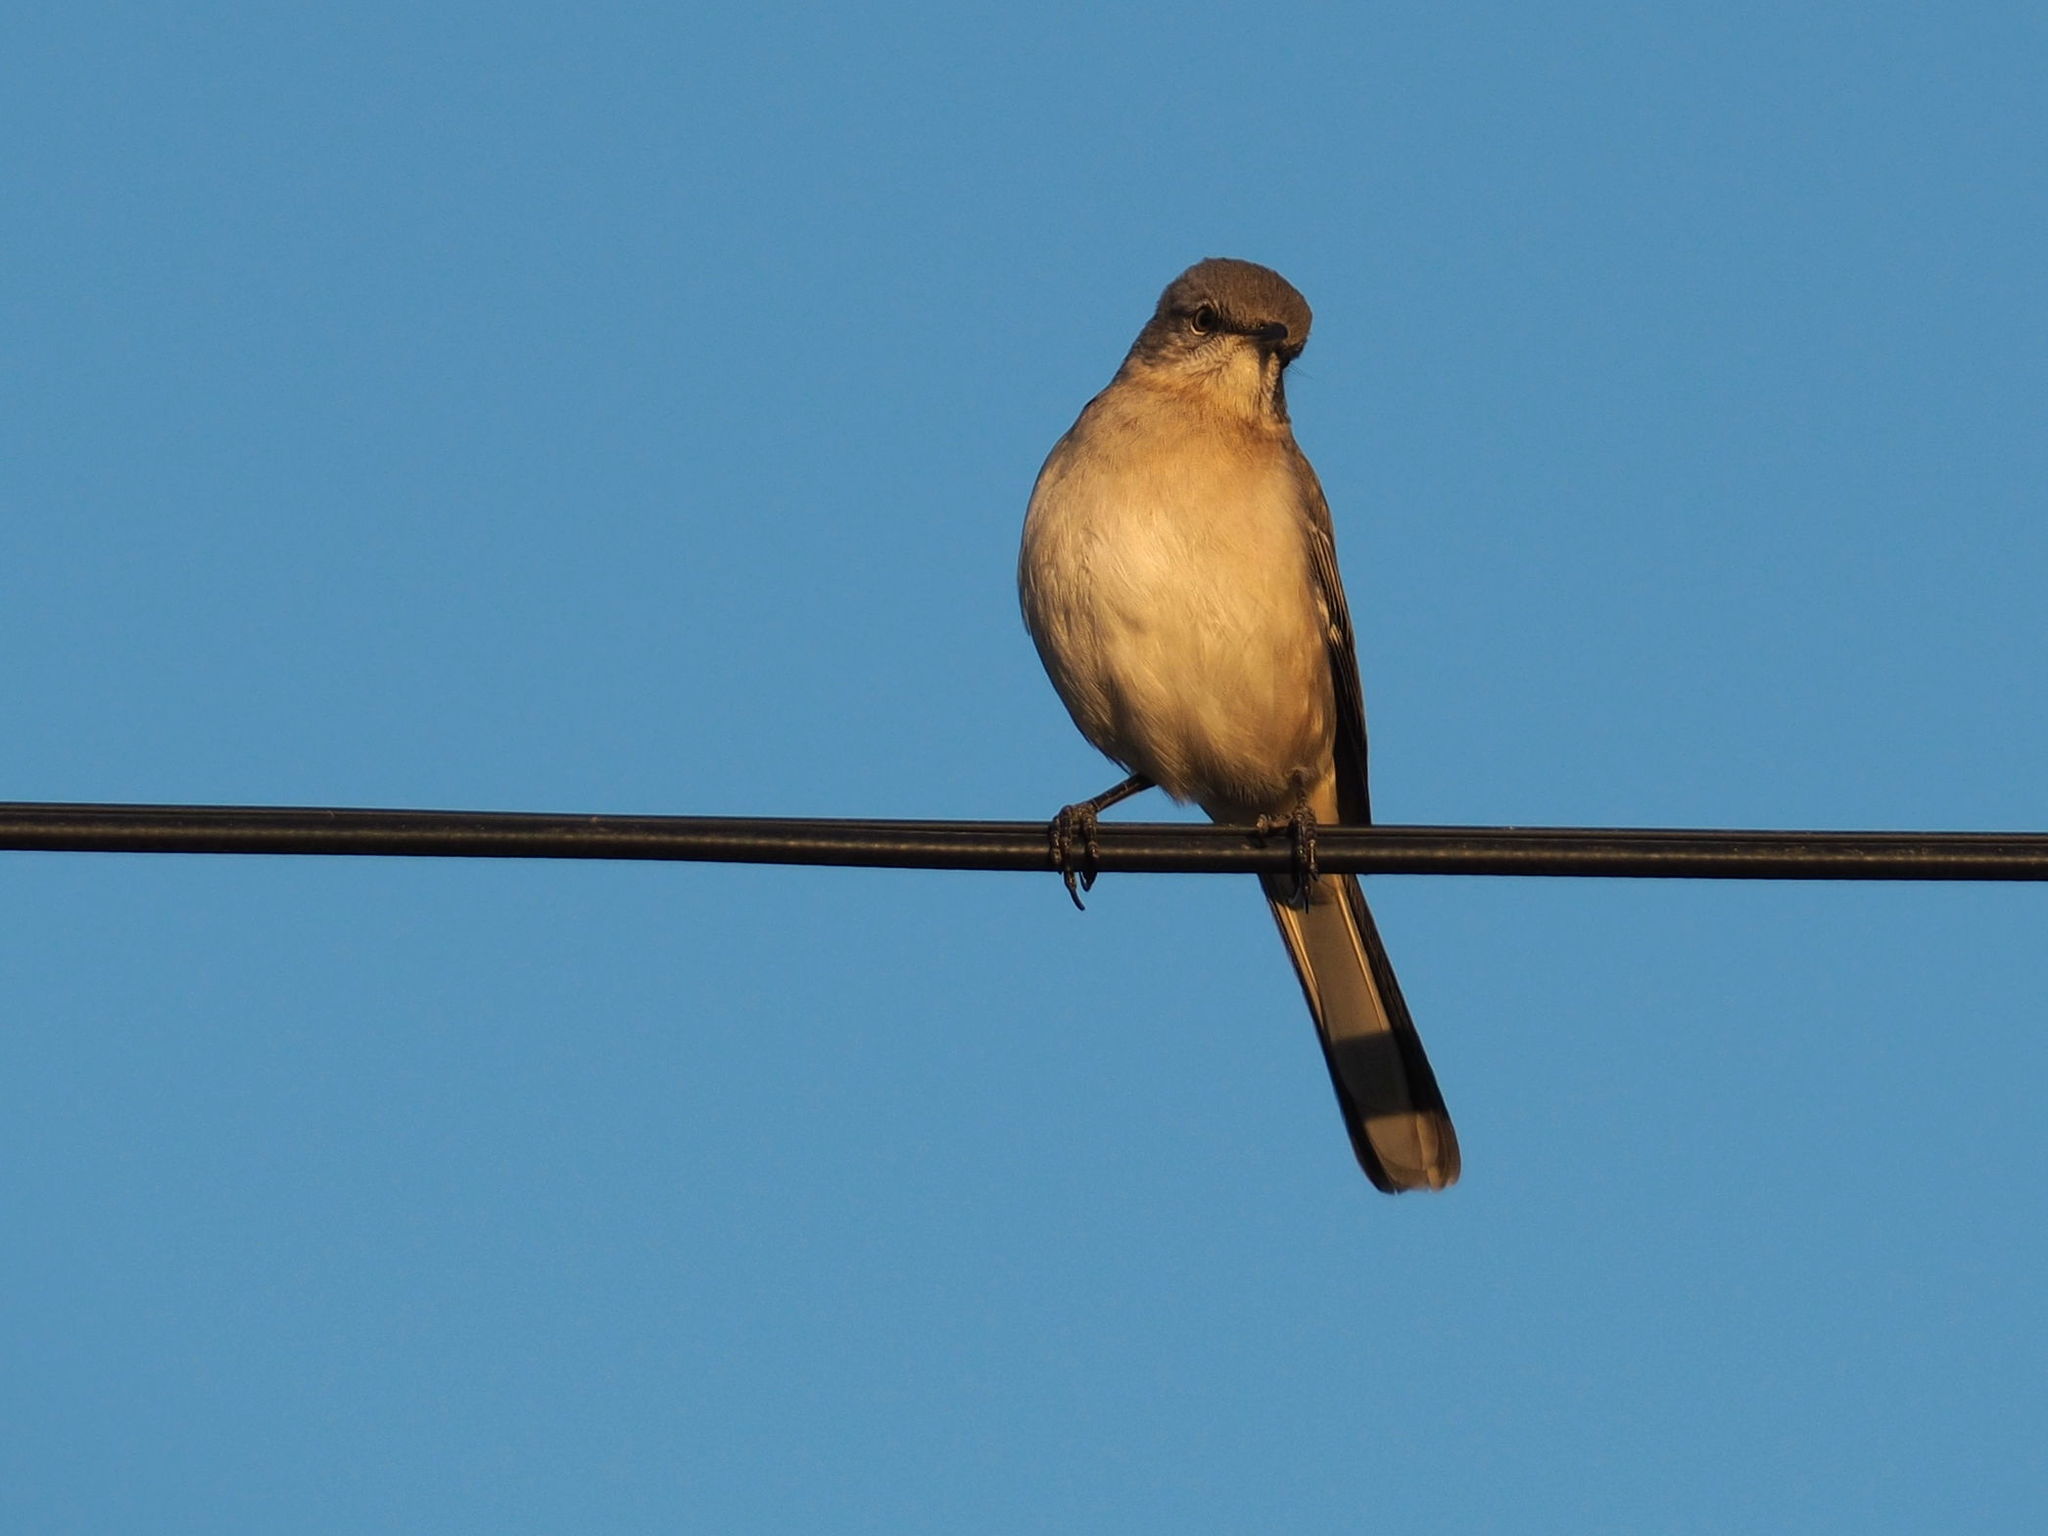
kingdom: Animalia
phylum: Chordata
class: Aves
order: Passeriformes
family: Mimidae
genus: Mimus
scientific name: Mimus polyglottos
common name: Northern mockingbird
